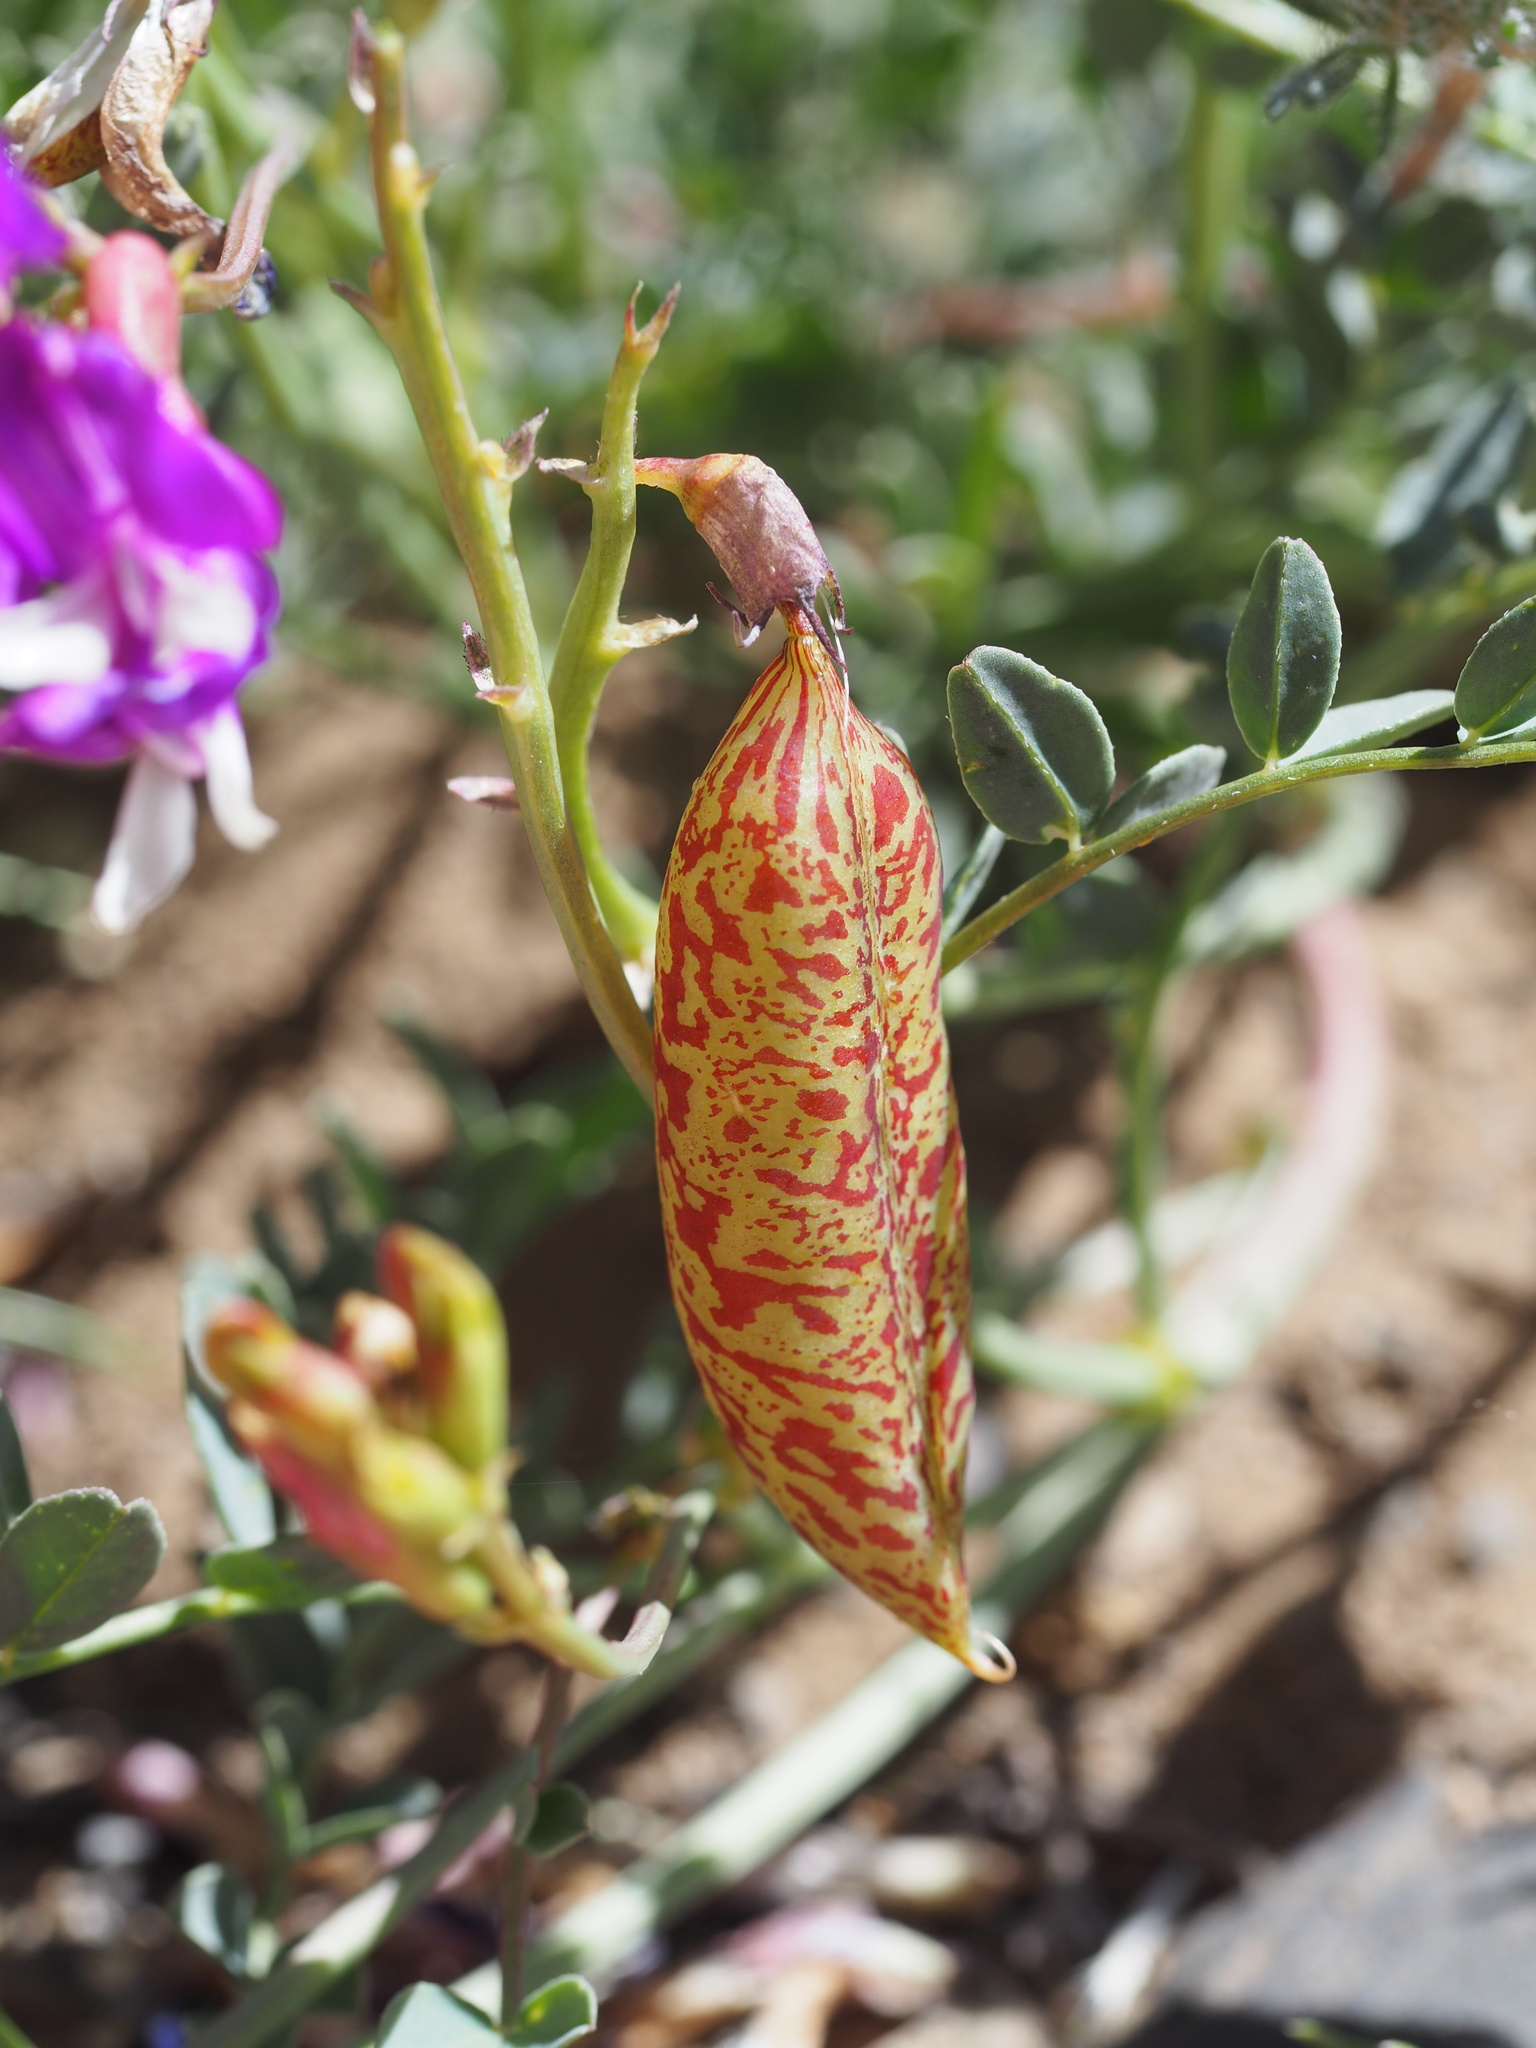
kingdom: Plantae
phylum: Tracheophyta
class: Magnoliopsida
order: Fabales
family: Fabaceae
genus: Astragalus
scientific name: Astragalus oophorus
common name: Egg milkvetch
